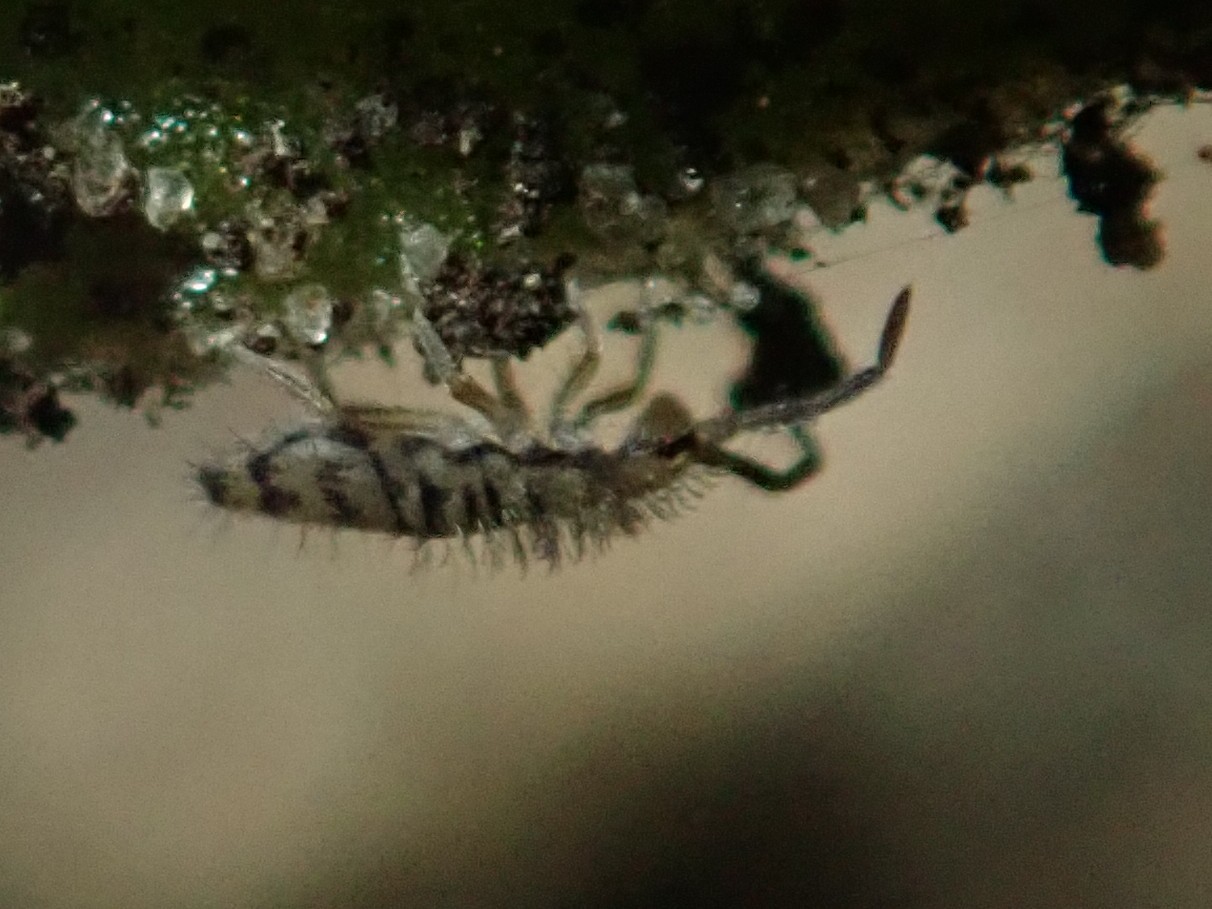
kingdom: Animalia
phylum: Arthropoda
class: Collembola
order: Entomobryomorpha
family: Entomobryidae
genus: Entomobrya
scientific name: Entomobrya multifasciata
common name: Springtail
